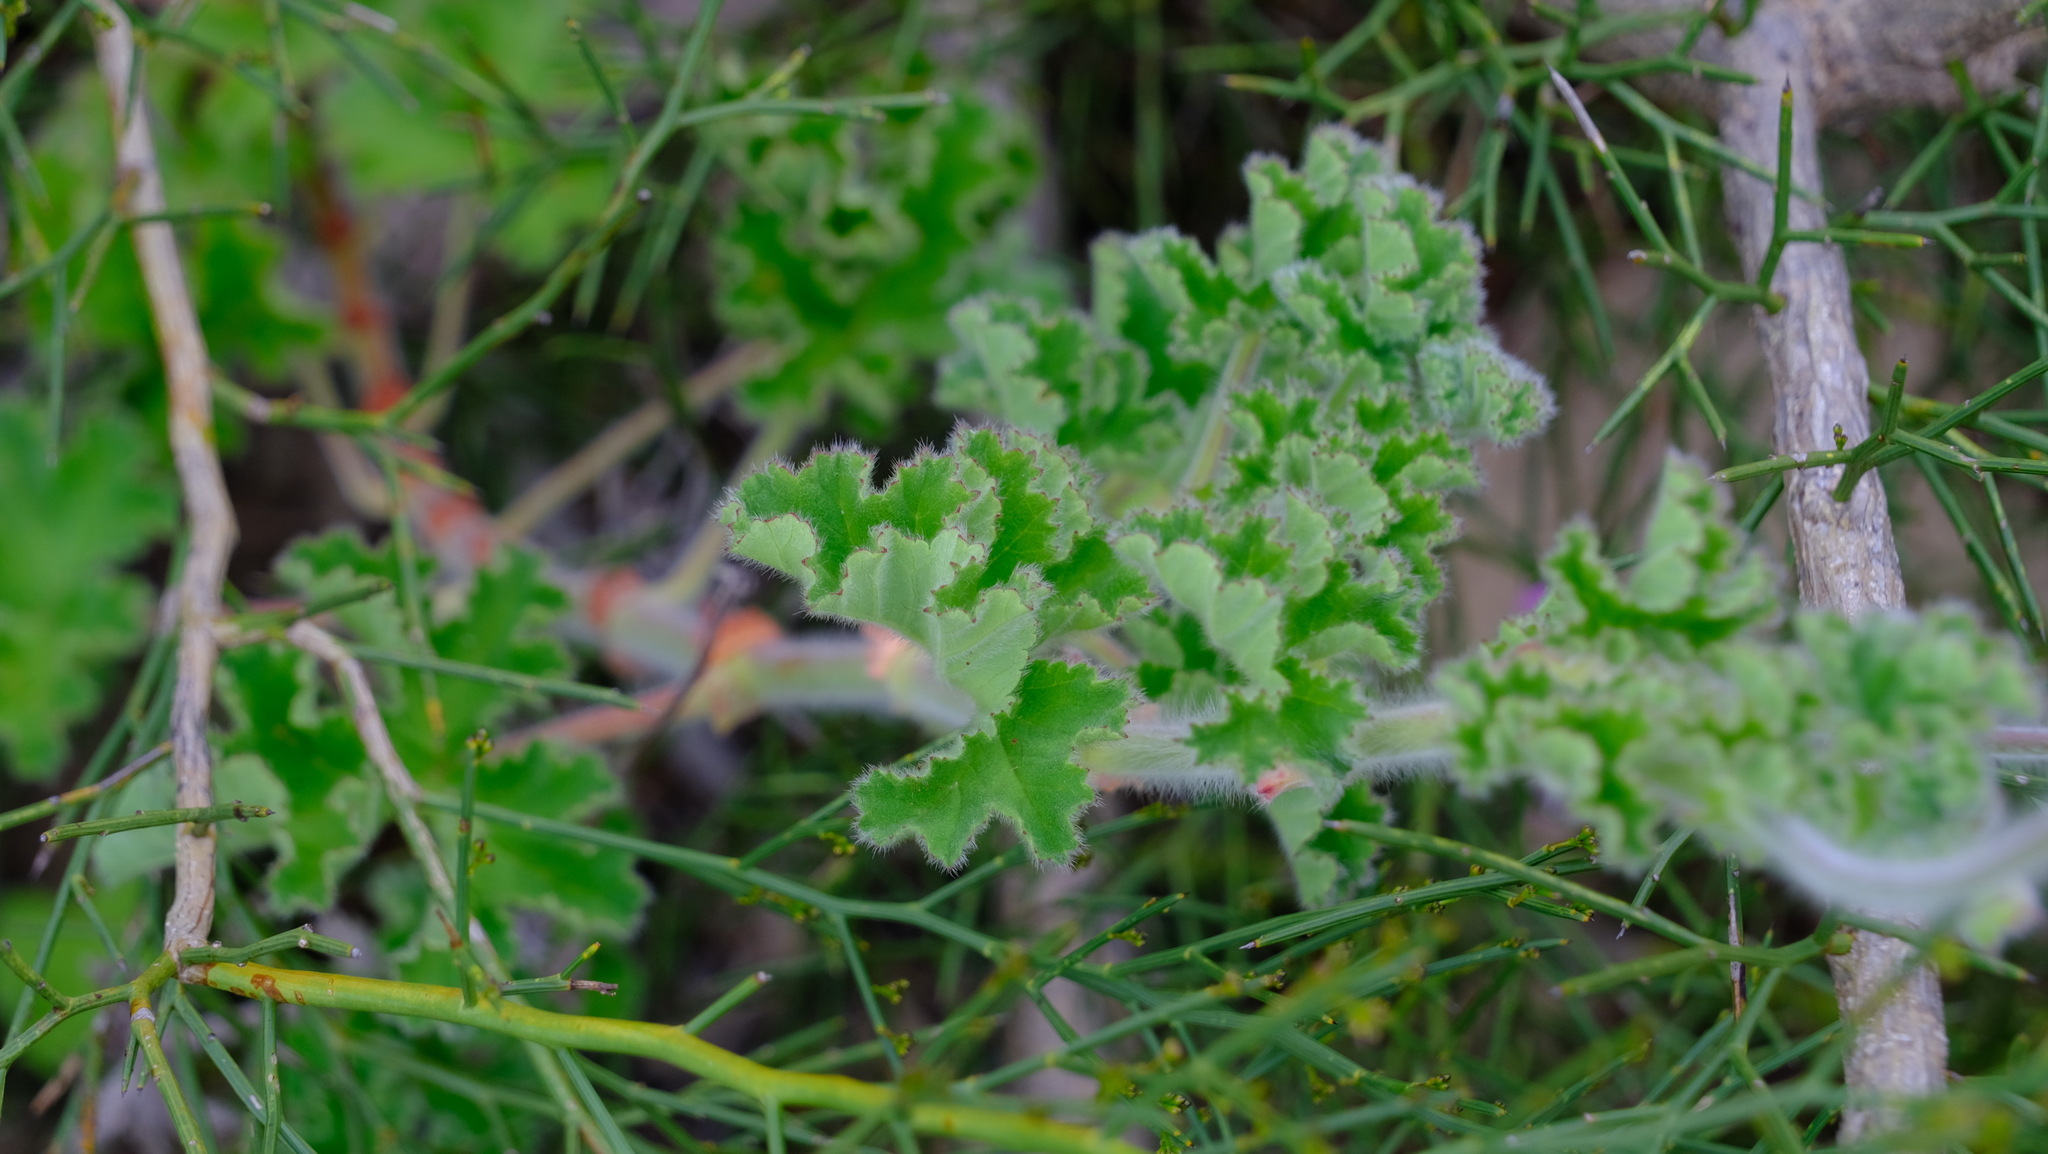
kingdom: Plantae
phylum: Tracheophyta
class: Magnoliopsida
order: Geraniales
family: Geraniaceae
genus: Pelargonium
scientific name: Pelargonium capitatum
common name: Rose scented geranium
